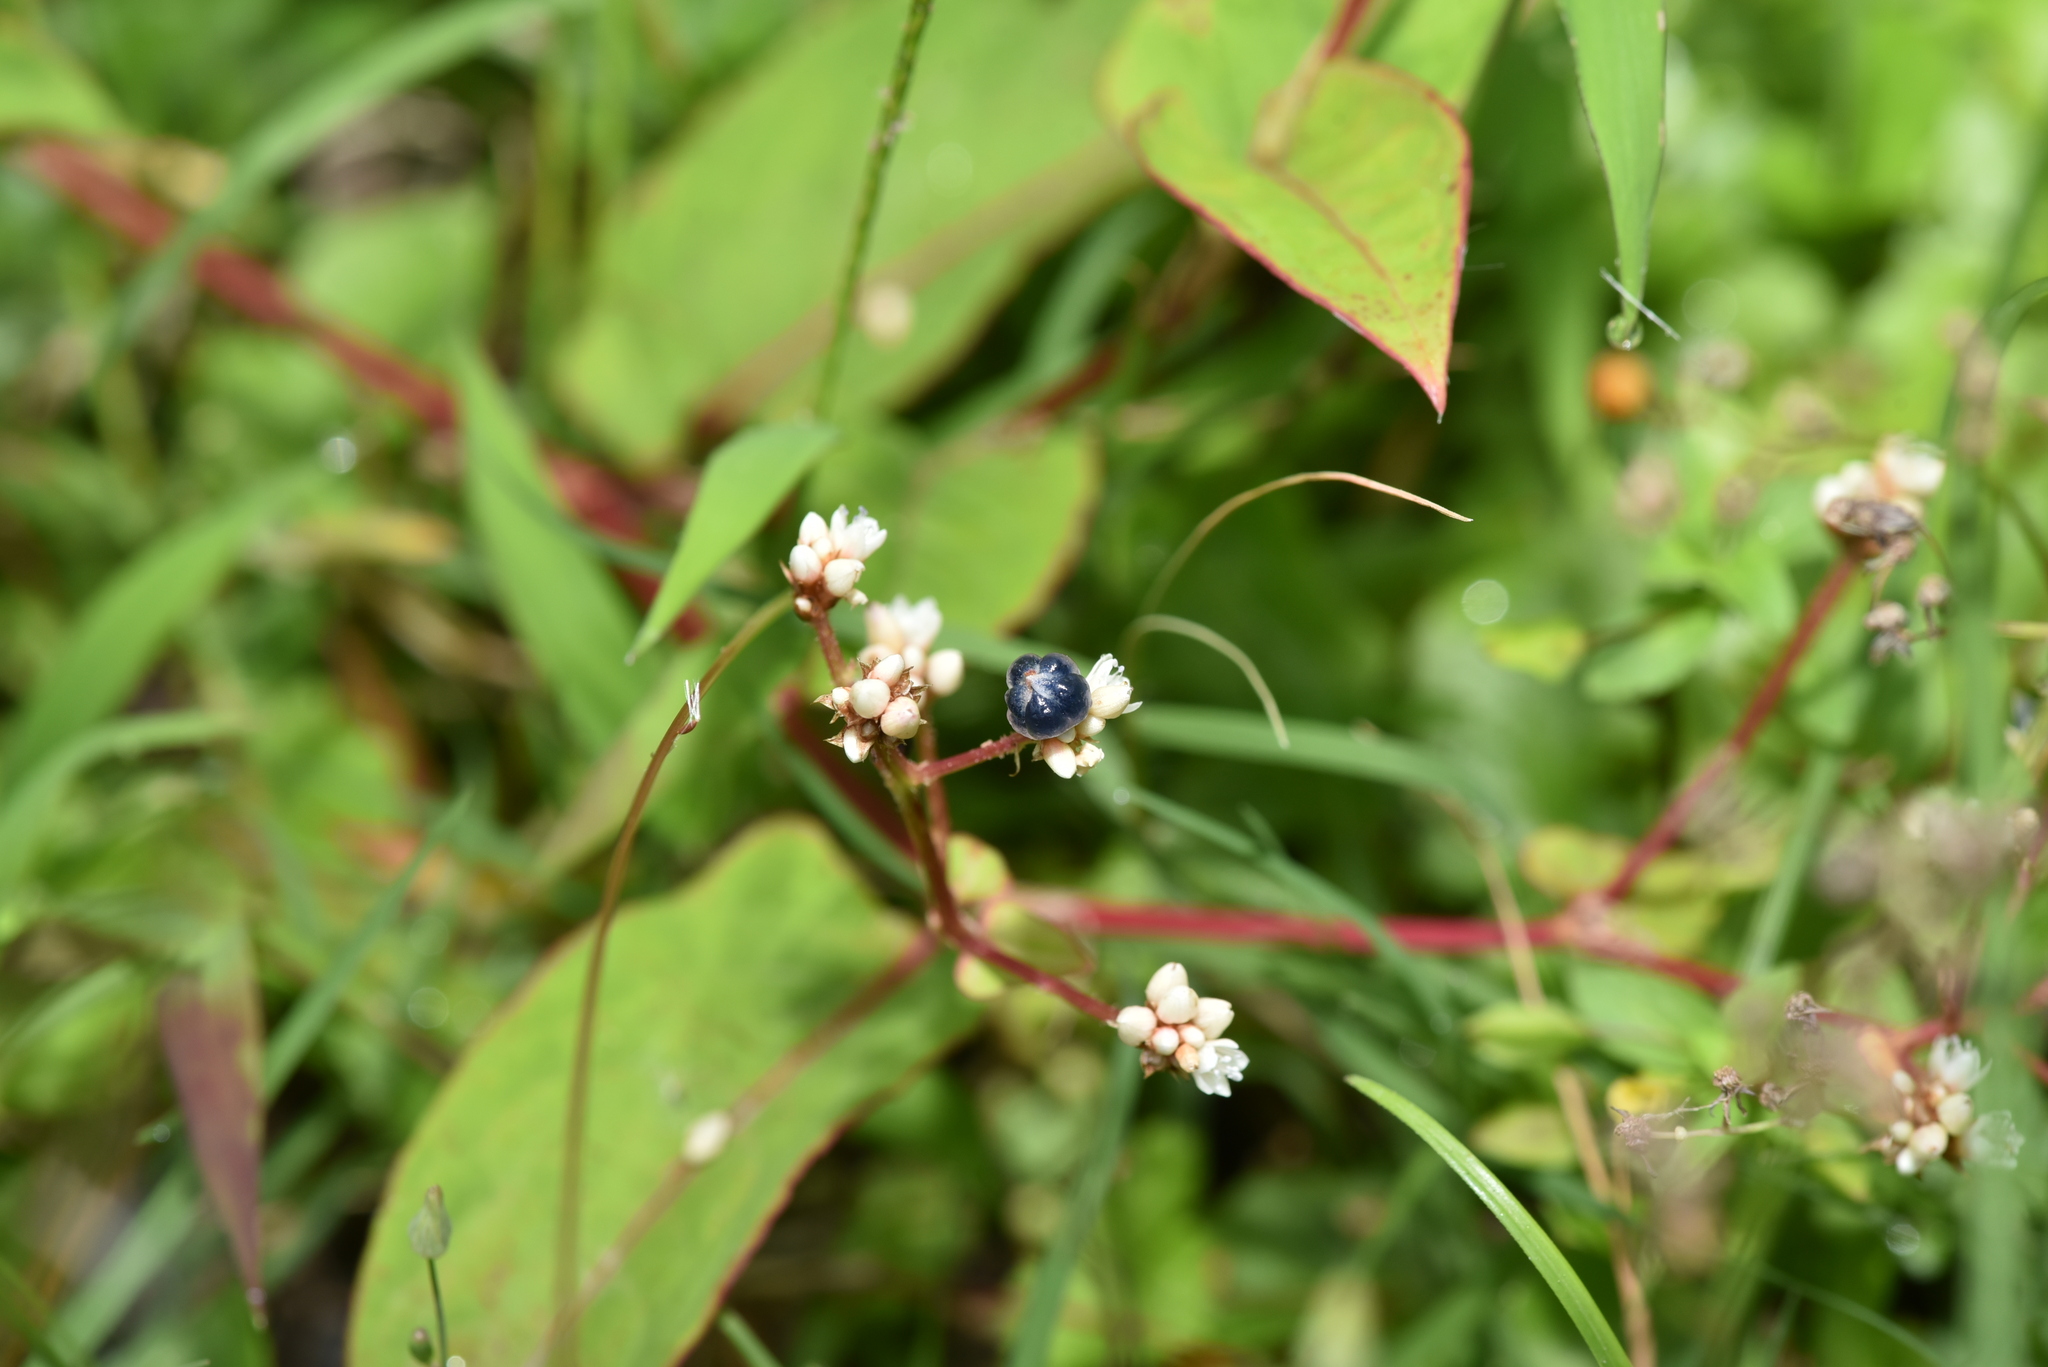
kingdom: Plantae
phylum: Tracheophyta
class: Magnoliopsida
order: Caryophyllales
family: Polygonaceae
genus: Persicaria
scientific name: Persicaria chinensis
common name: Chinese knotweed
